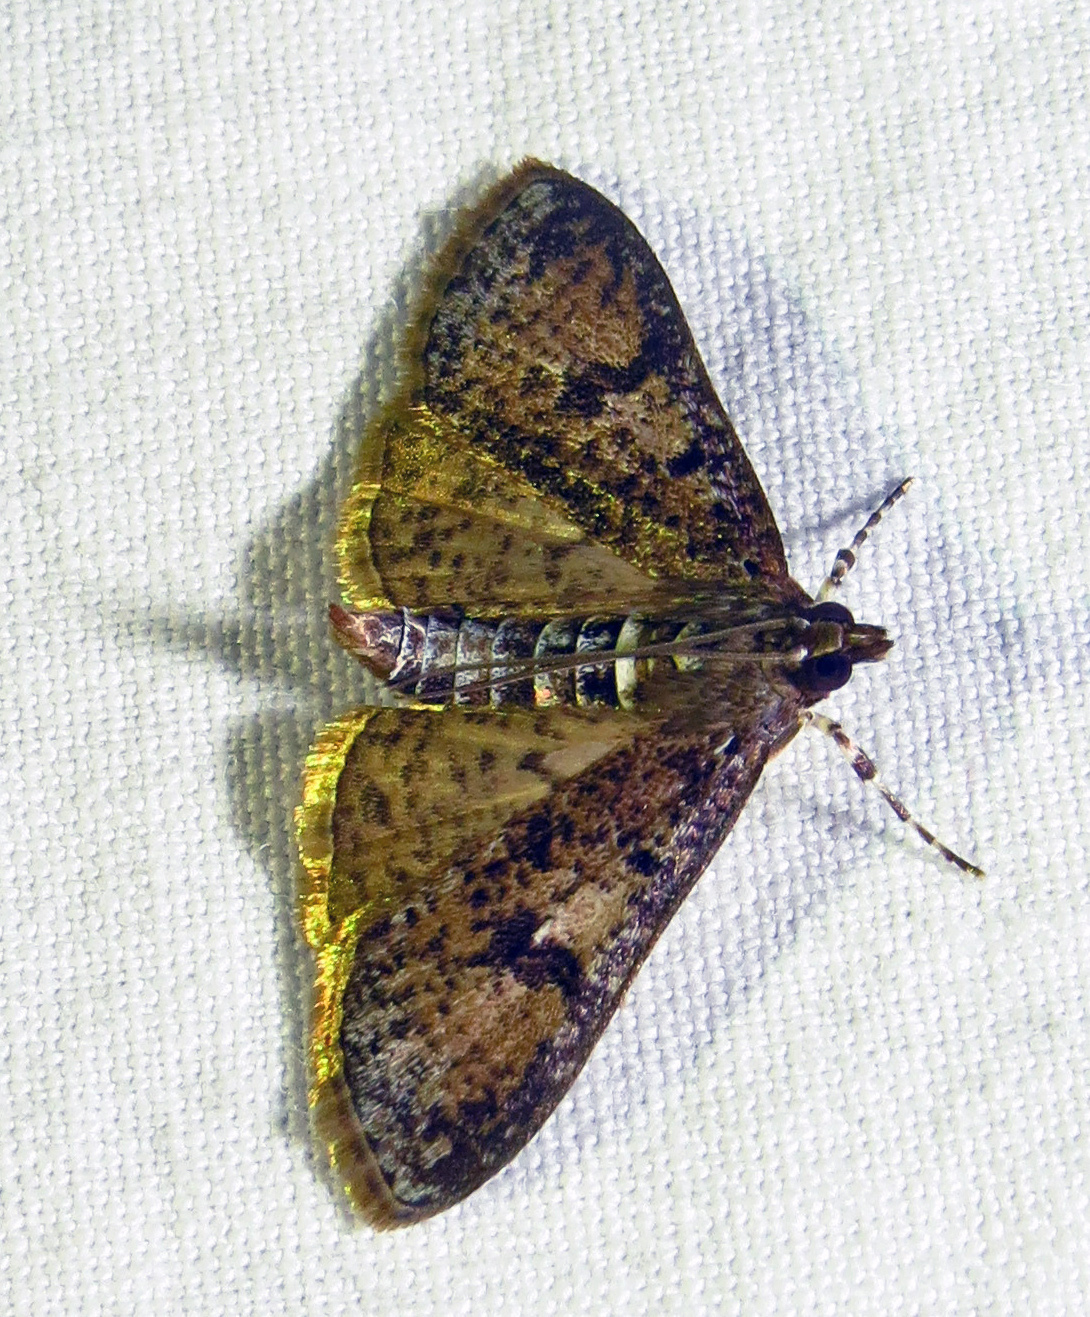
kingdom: Animalia
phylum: Arthropoda
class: Insecta
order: Lepidoptera
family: Crambidae
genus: Palpita
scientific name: Palpita magniferalis
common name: Splendid palpita moth
